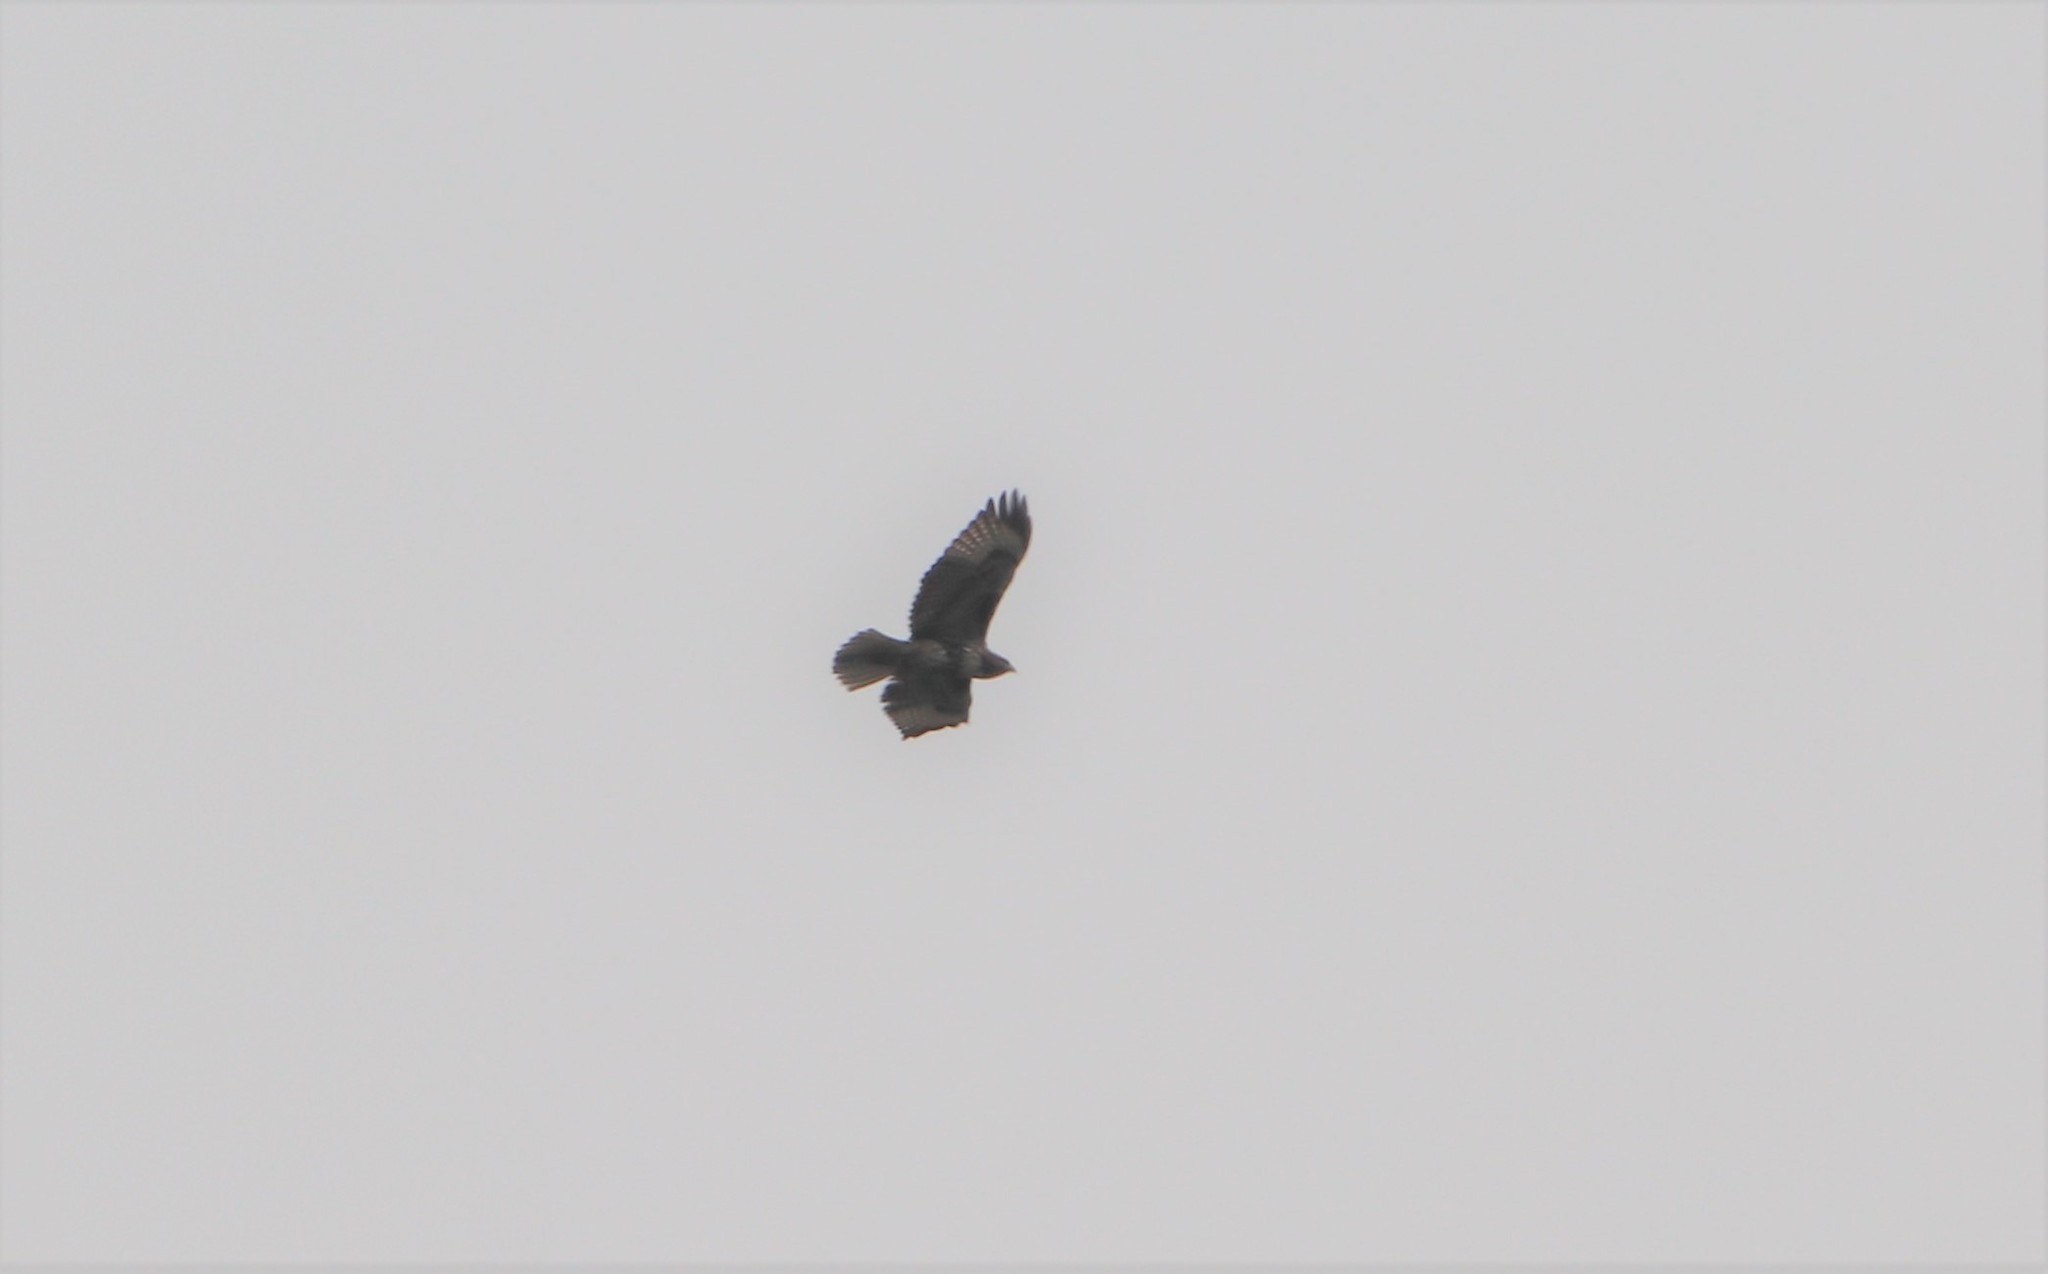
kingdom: Animalia
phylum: Chordata
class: Aves
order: Accipitriformes
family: Accipitridae
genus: Buteo
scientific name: Buteo jamaicensis
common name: Red-tailed hawk
